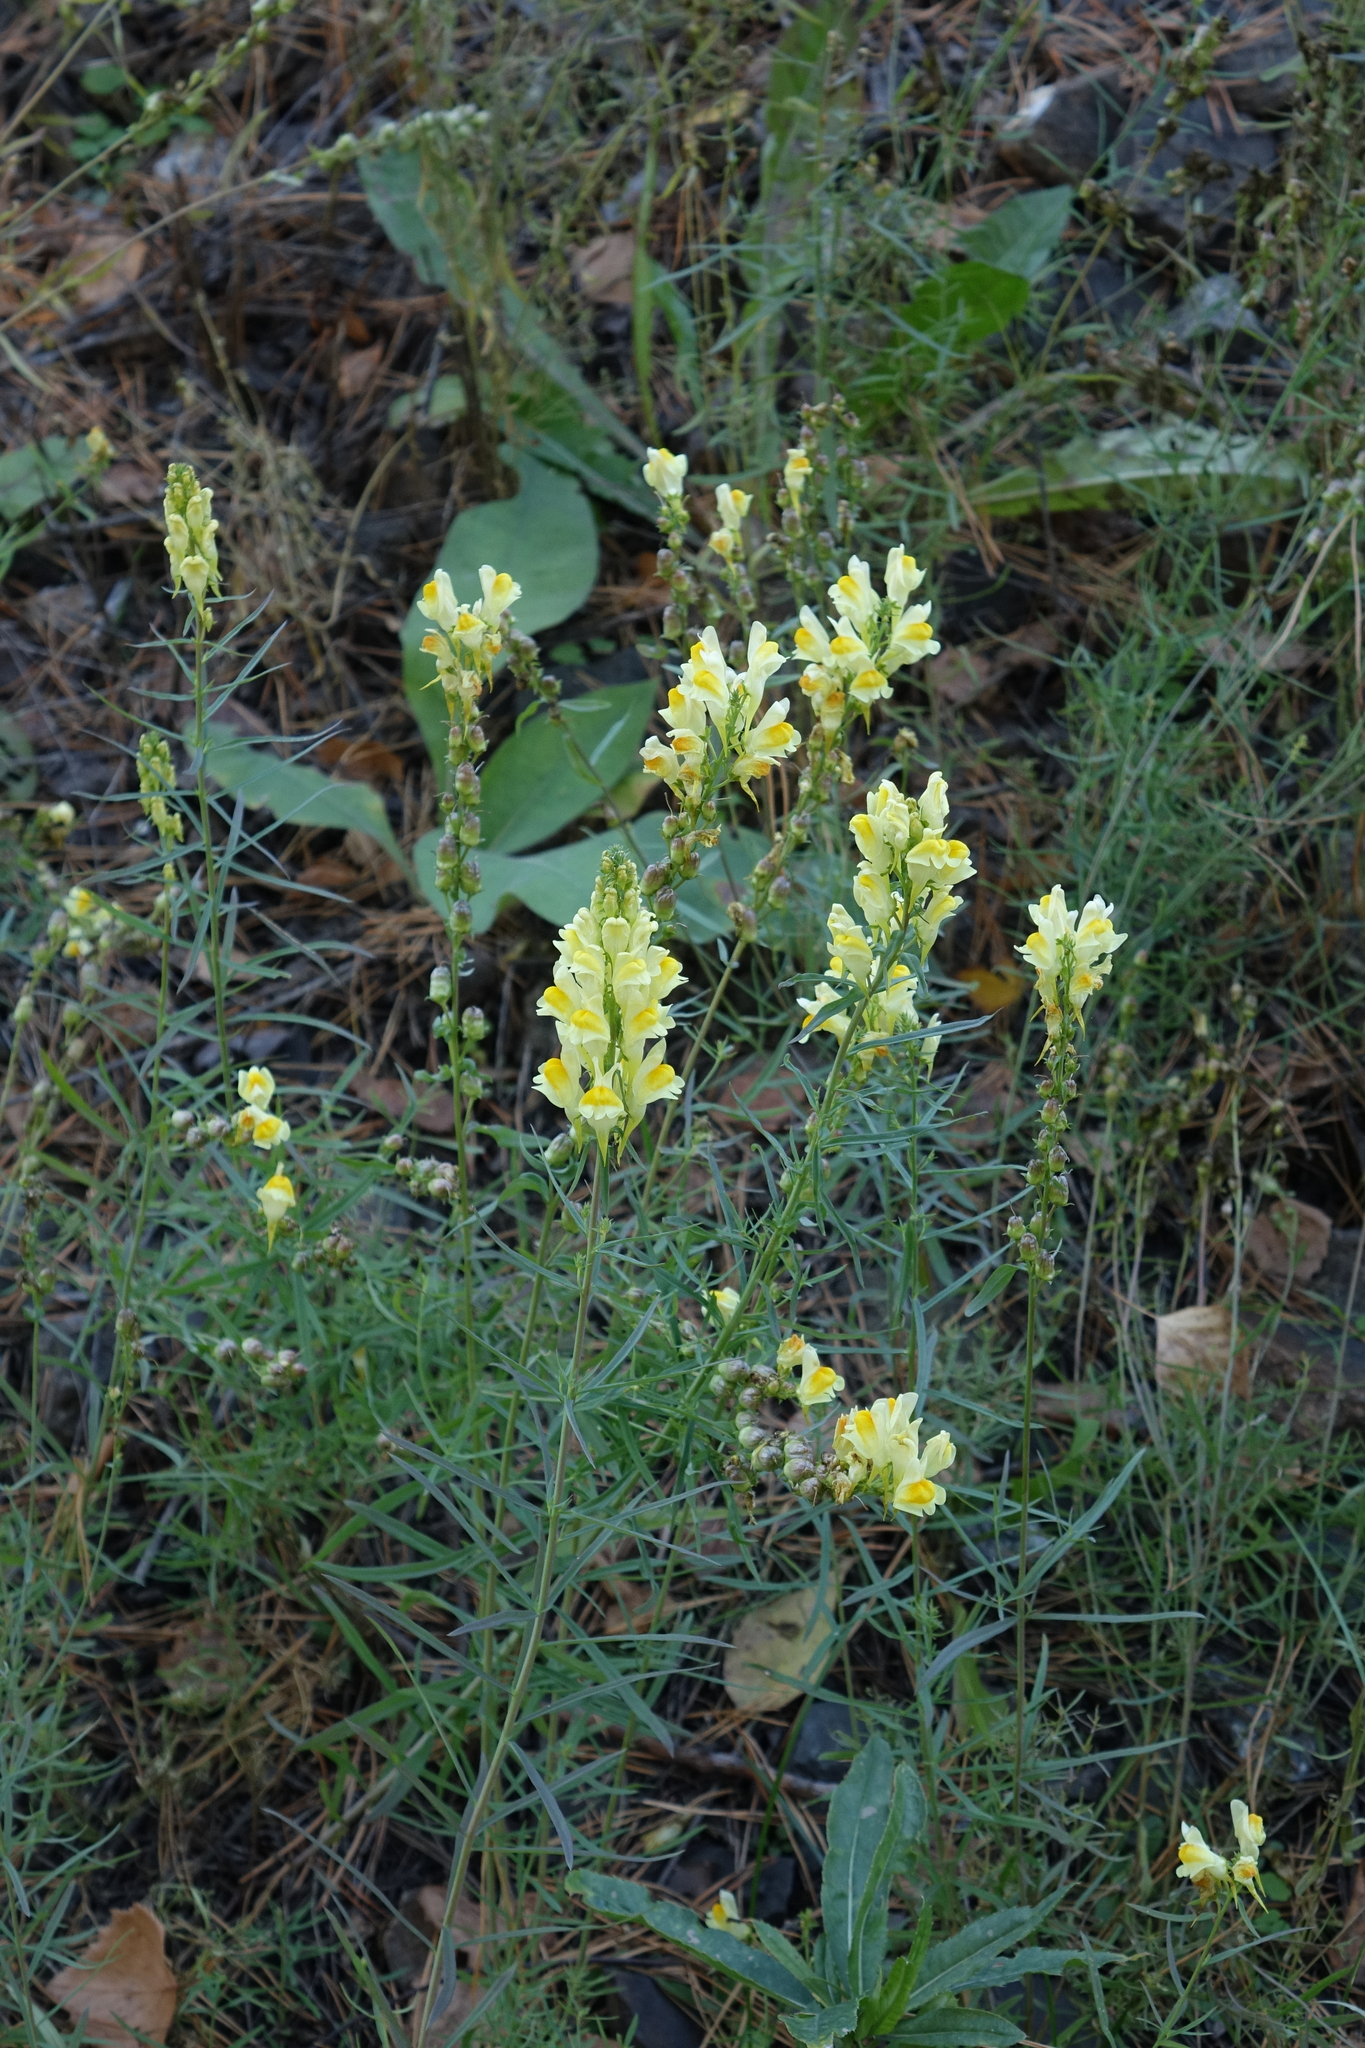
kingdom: Plantae
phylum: Tracheophyta
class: Magnoliopsida
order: Lamiales
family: Plantaginaceae
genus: Linaria
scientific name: Linaria vulgaris
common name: Butter and eggs
